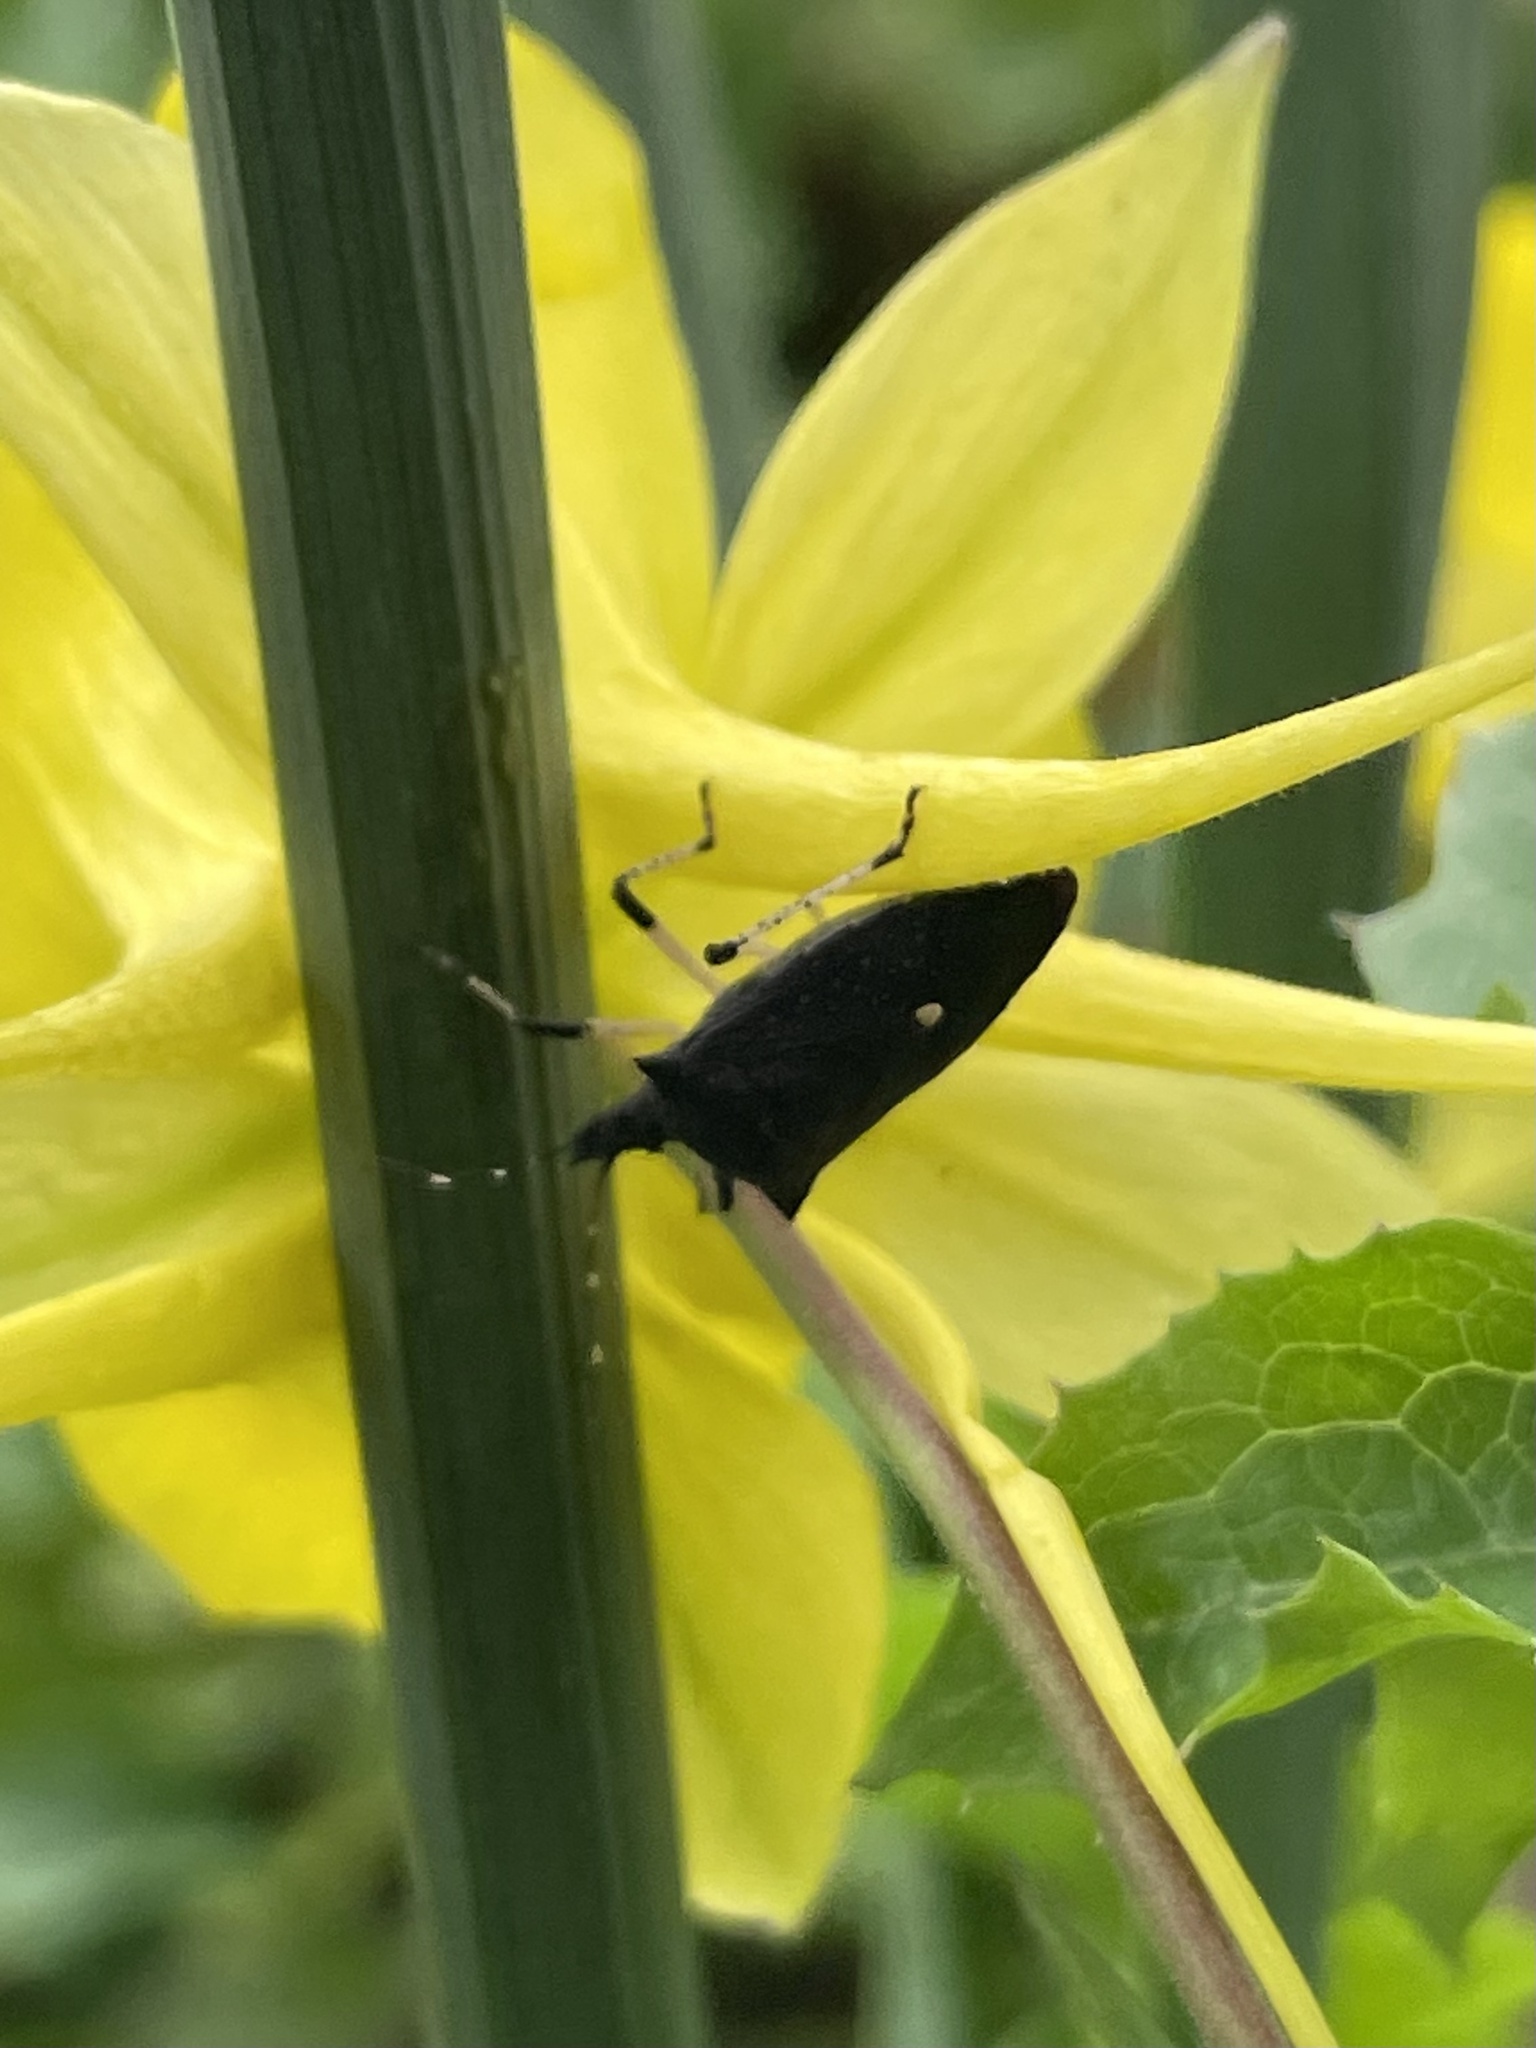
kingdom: Animalia
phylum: Arthropoda
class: Insecta
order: Hemiptera
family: Pentatomidae
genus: Proxys
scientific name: Proxys punctulatus
